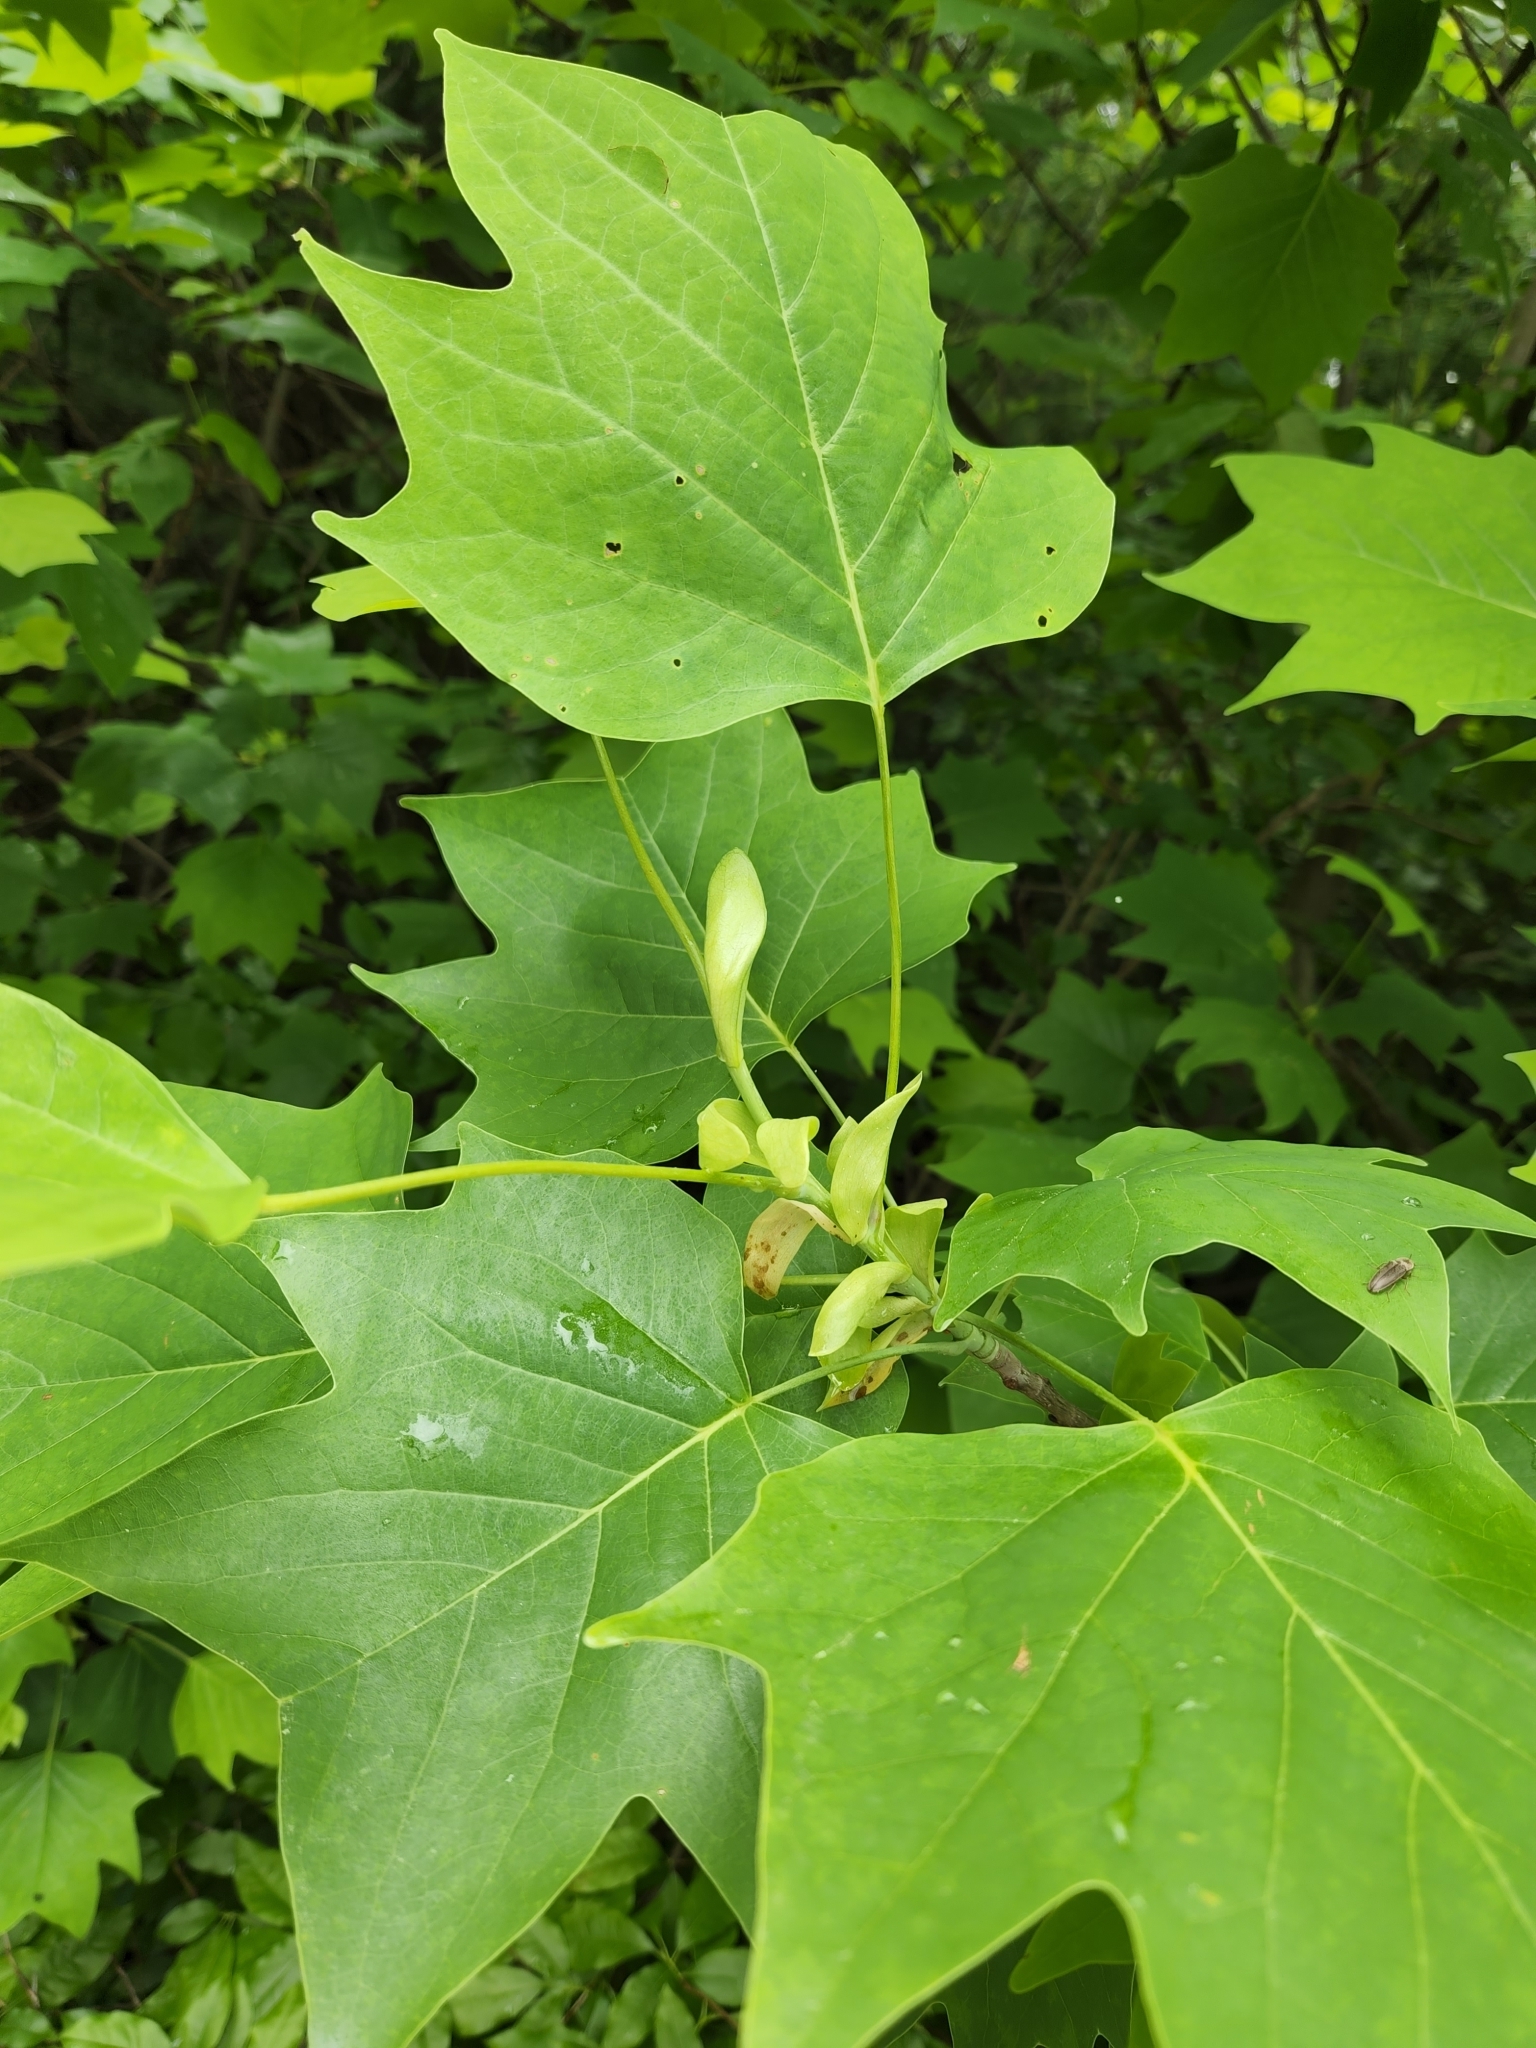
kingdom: Plantae
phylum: Tracheophyta
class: Magnoliopsida
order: Magnoliales
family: Magnoliaceae
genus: Liriodendron
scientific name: Liriodendron tulipifera
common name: Tulip tree
